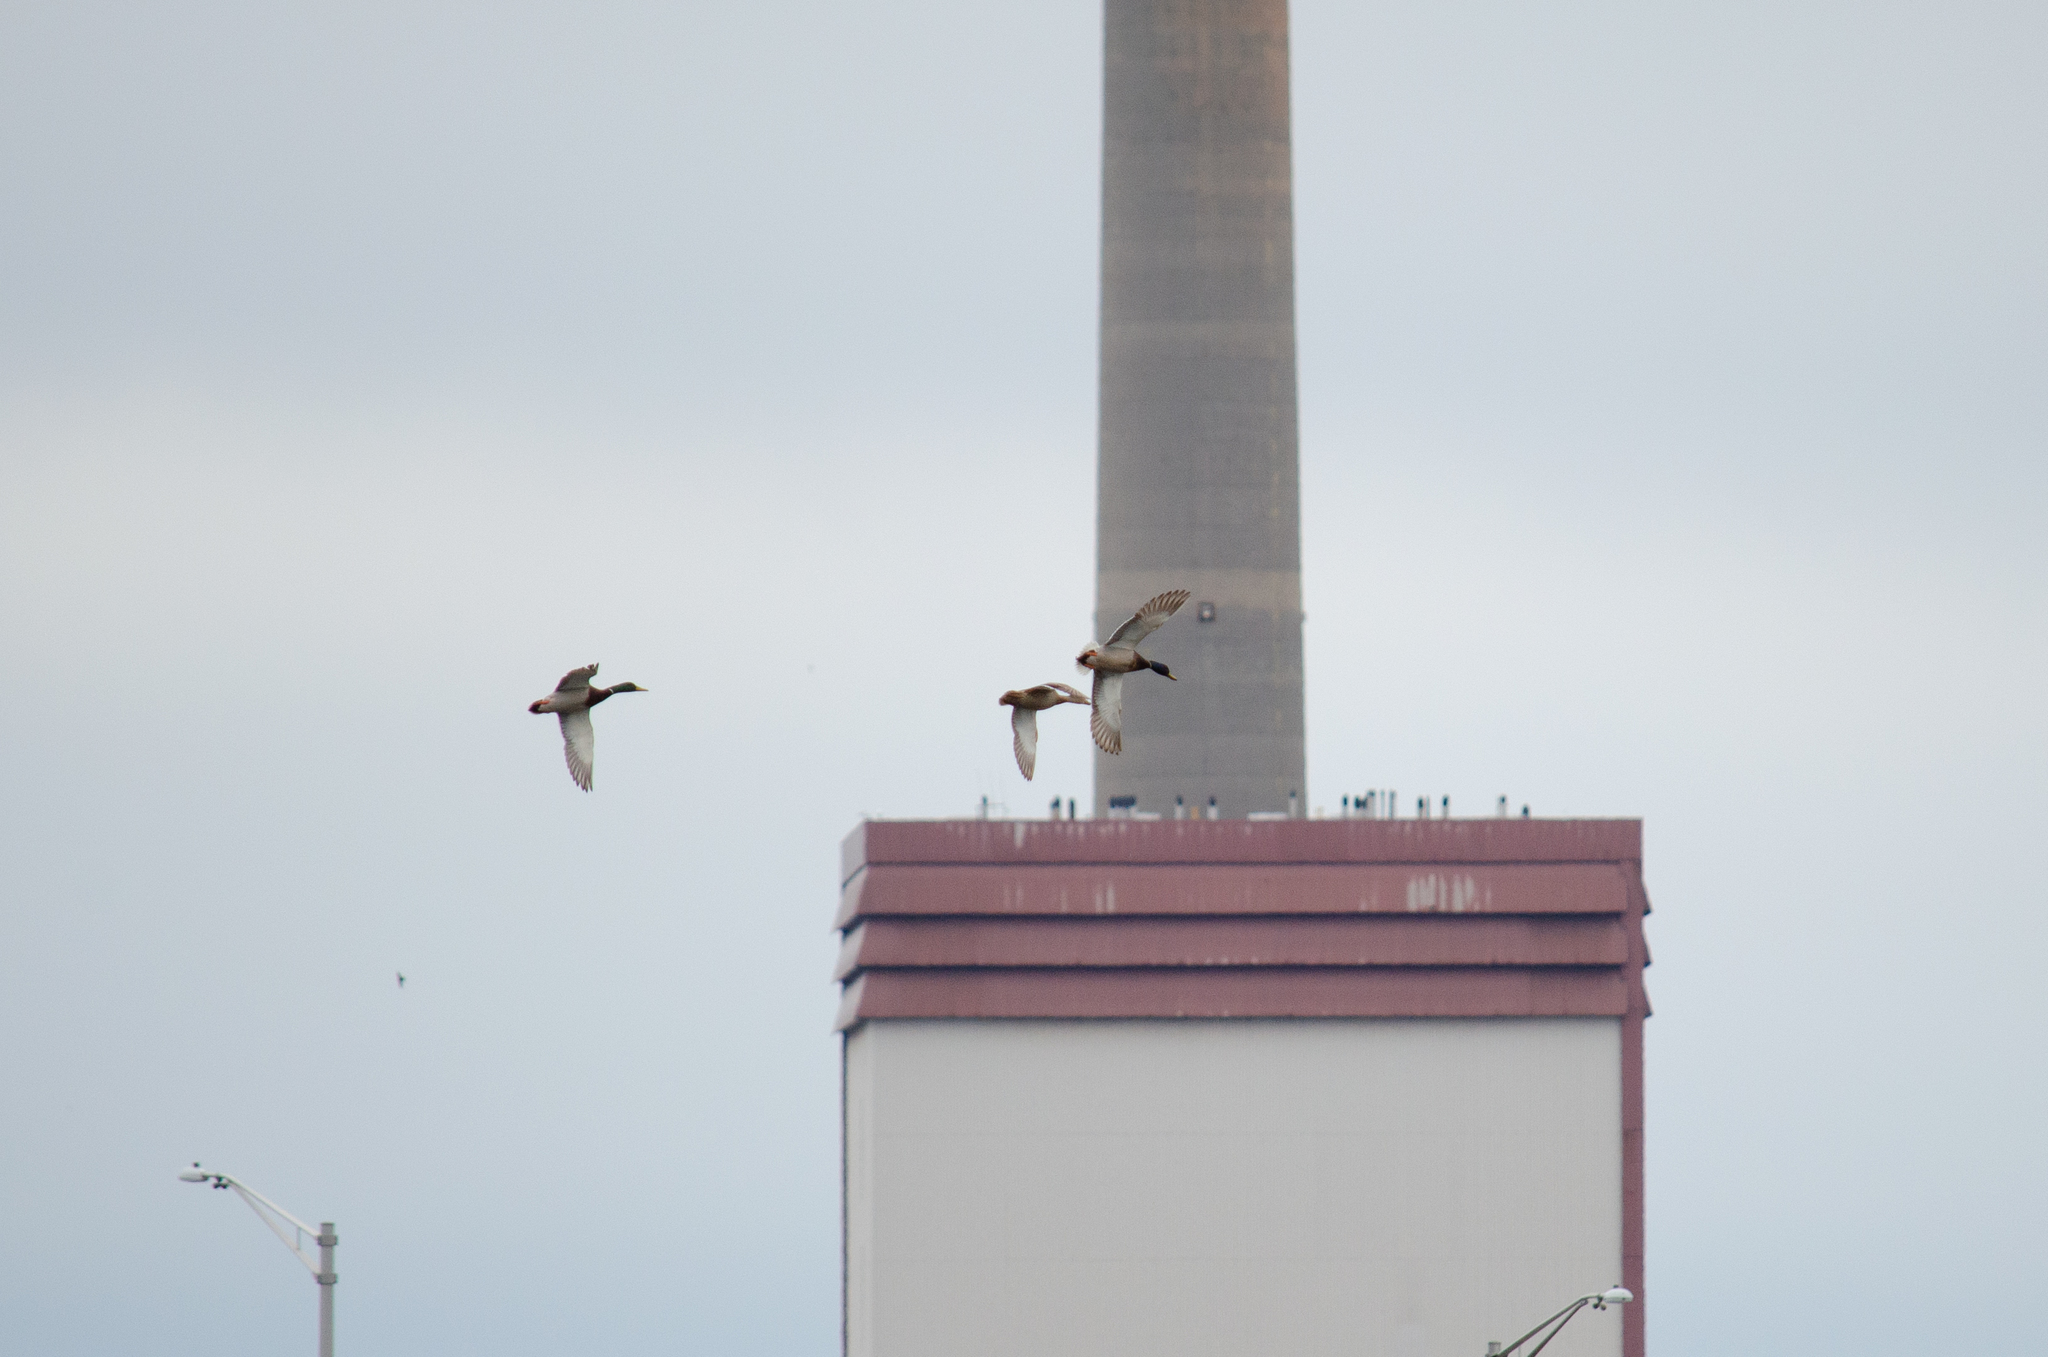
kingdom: Animalia
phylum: Chordata
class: Aves
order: Anseriformes
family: Anatidae
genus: Anas
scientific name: Anas platyrhynchos
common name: Mallard
